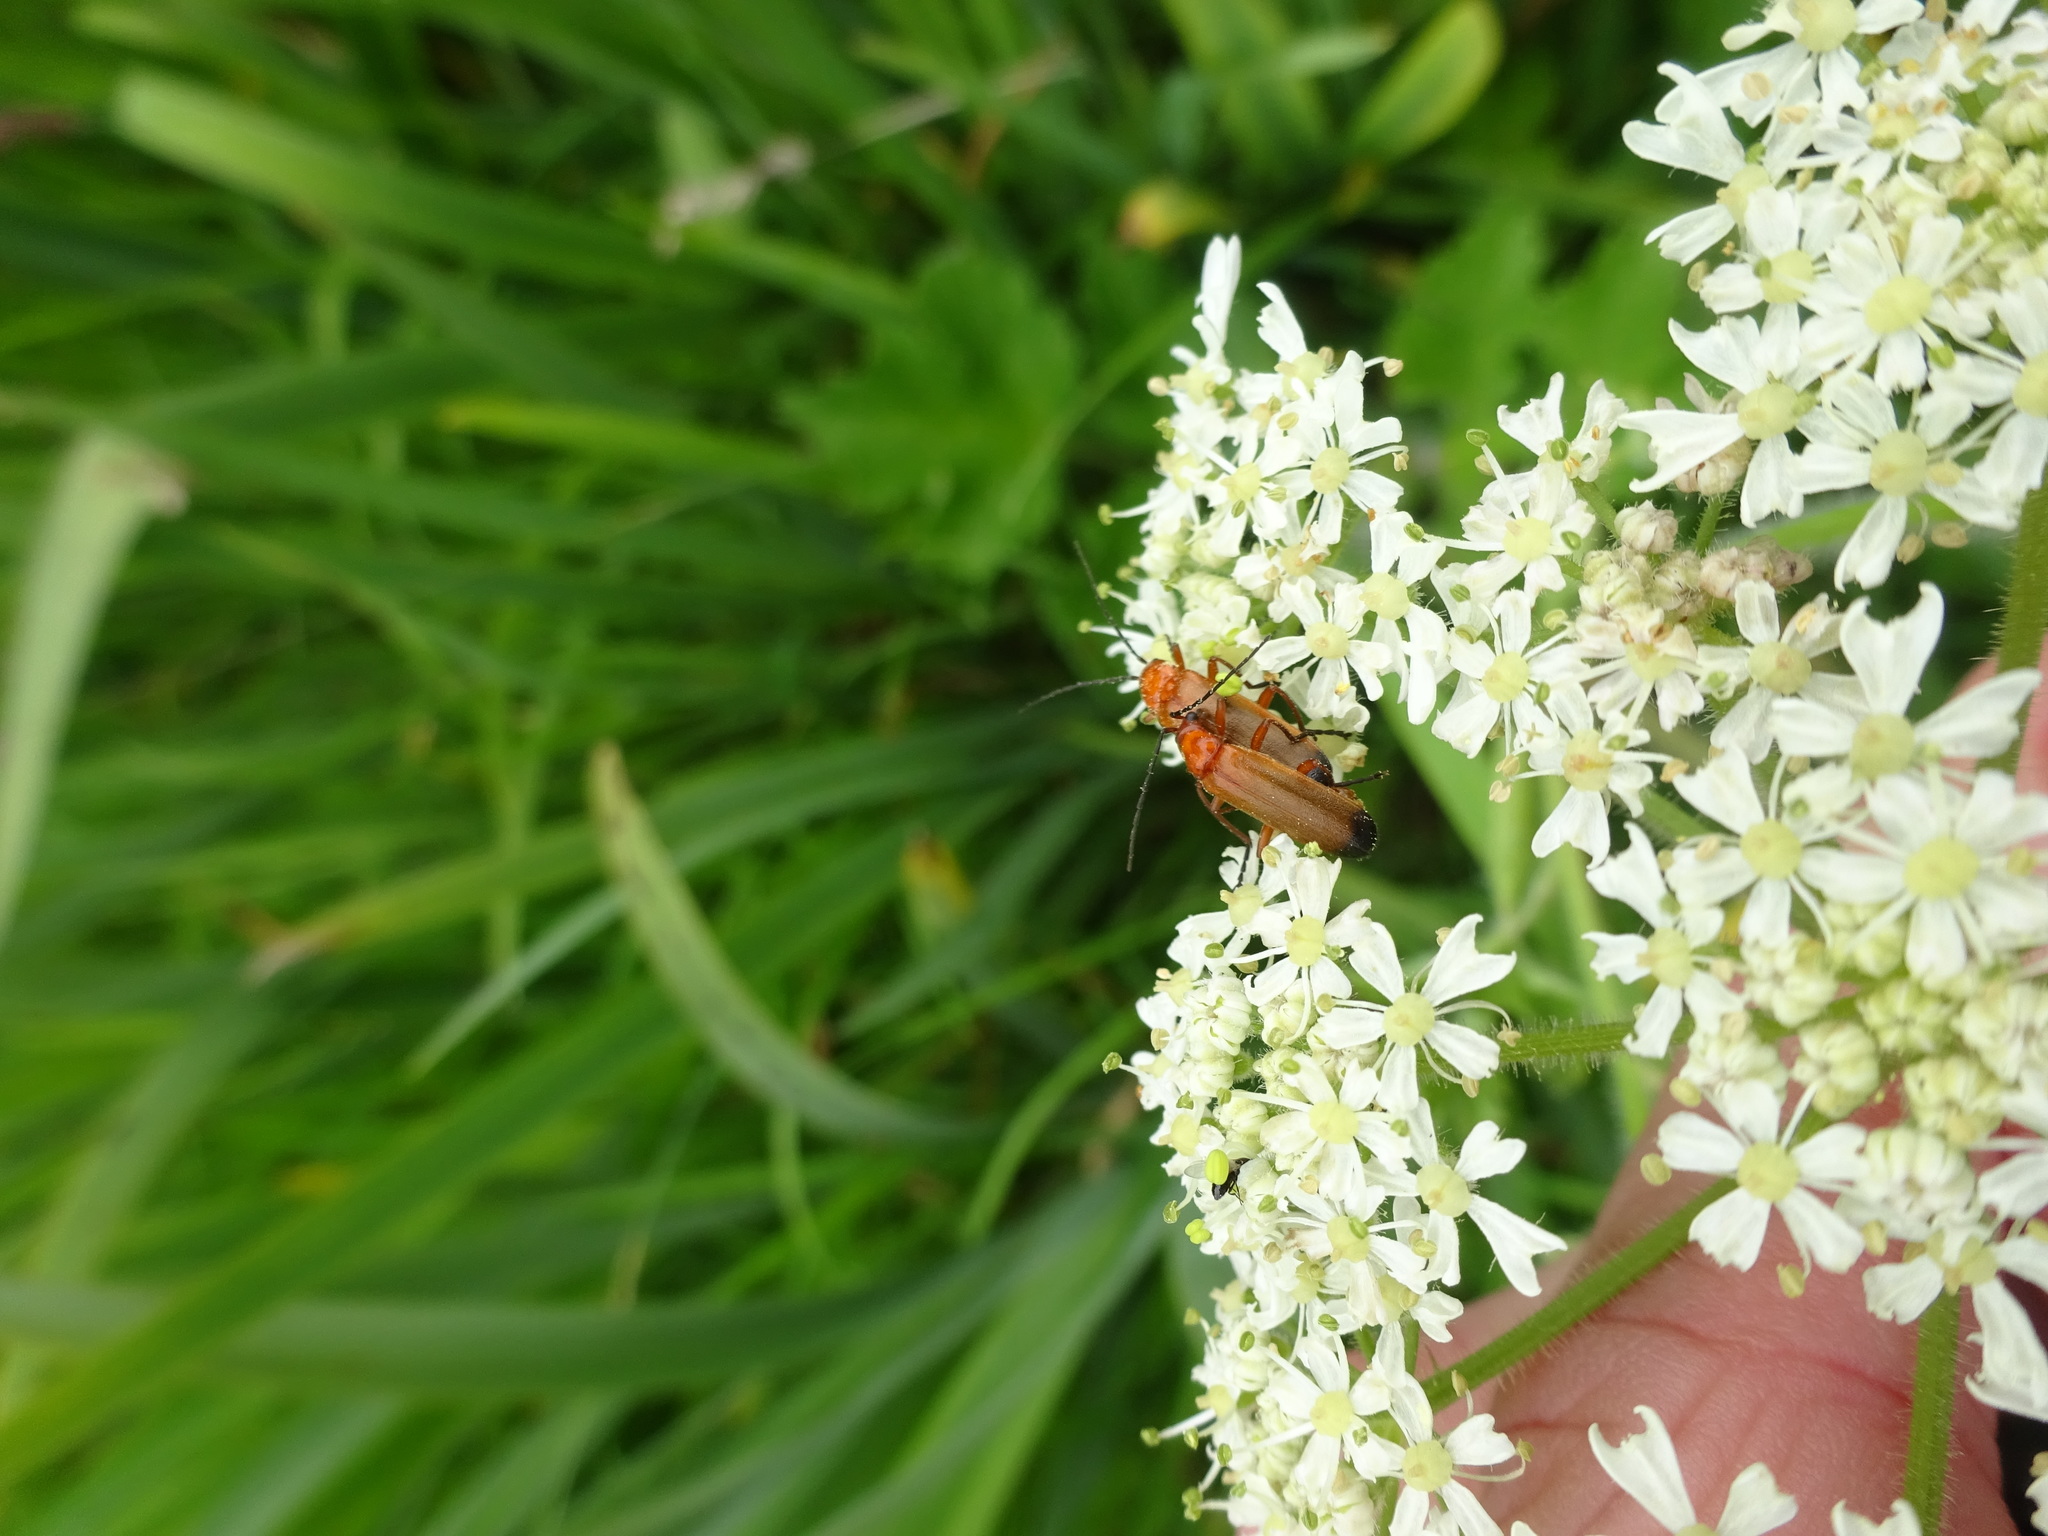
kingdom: Animalia
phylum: Arthropoda
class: Insecta
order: Coleoptera
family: Cantharidae
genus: Rhagonycha
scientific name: Rhagonycha fulva
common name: Common red soldier beetle
